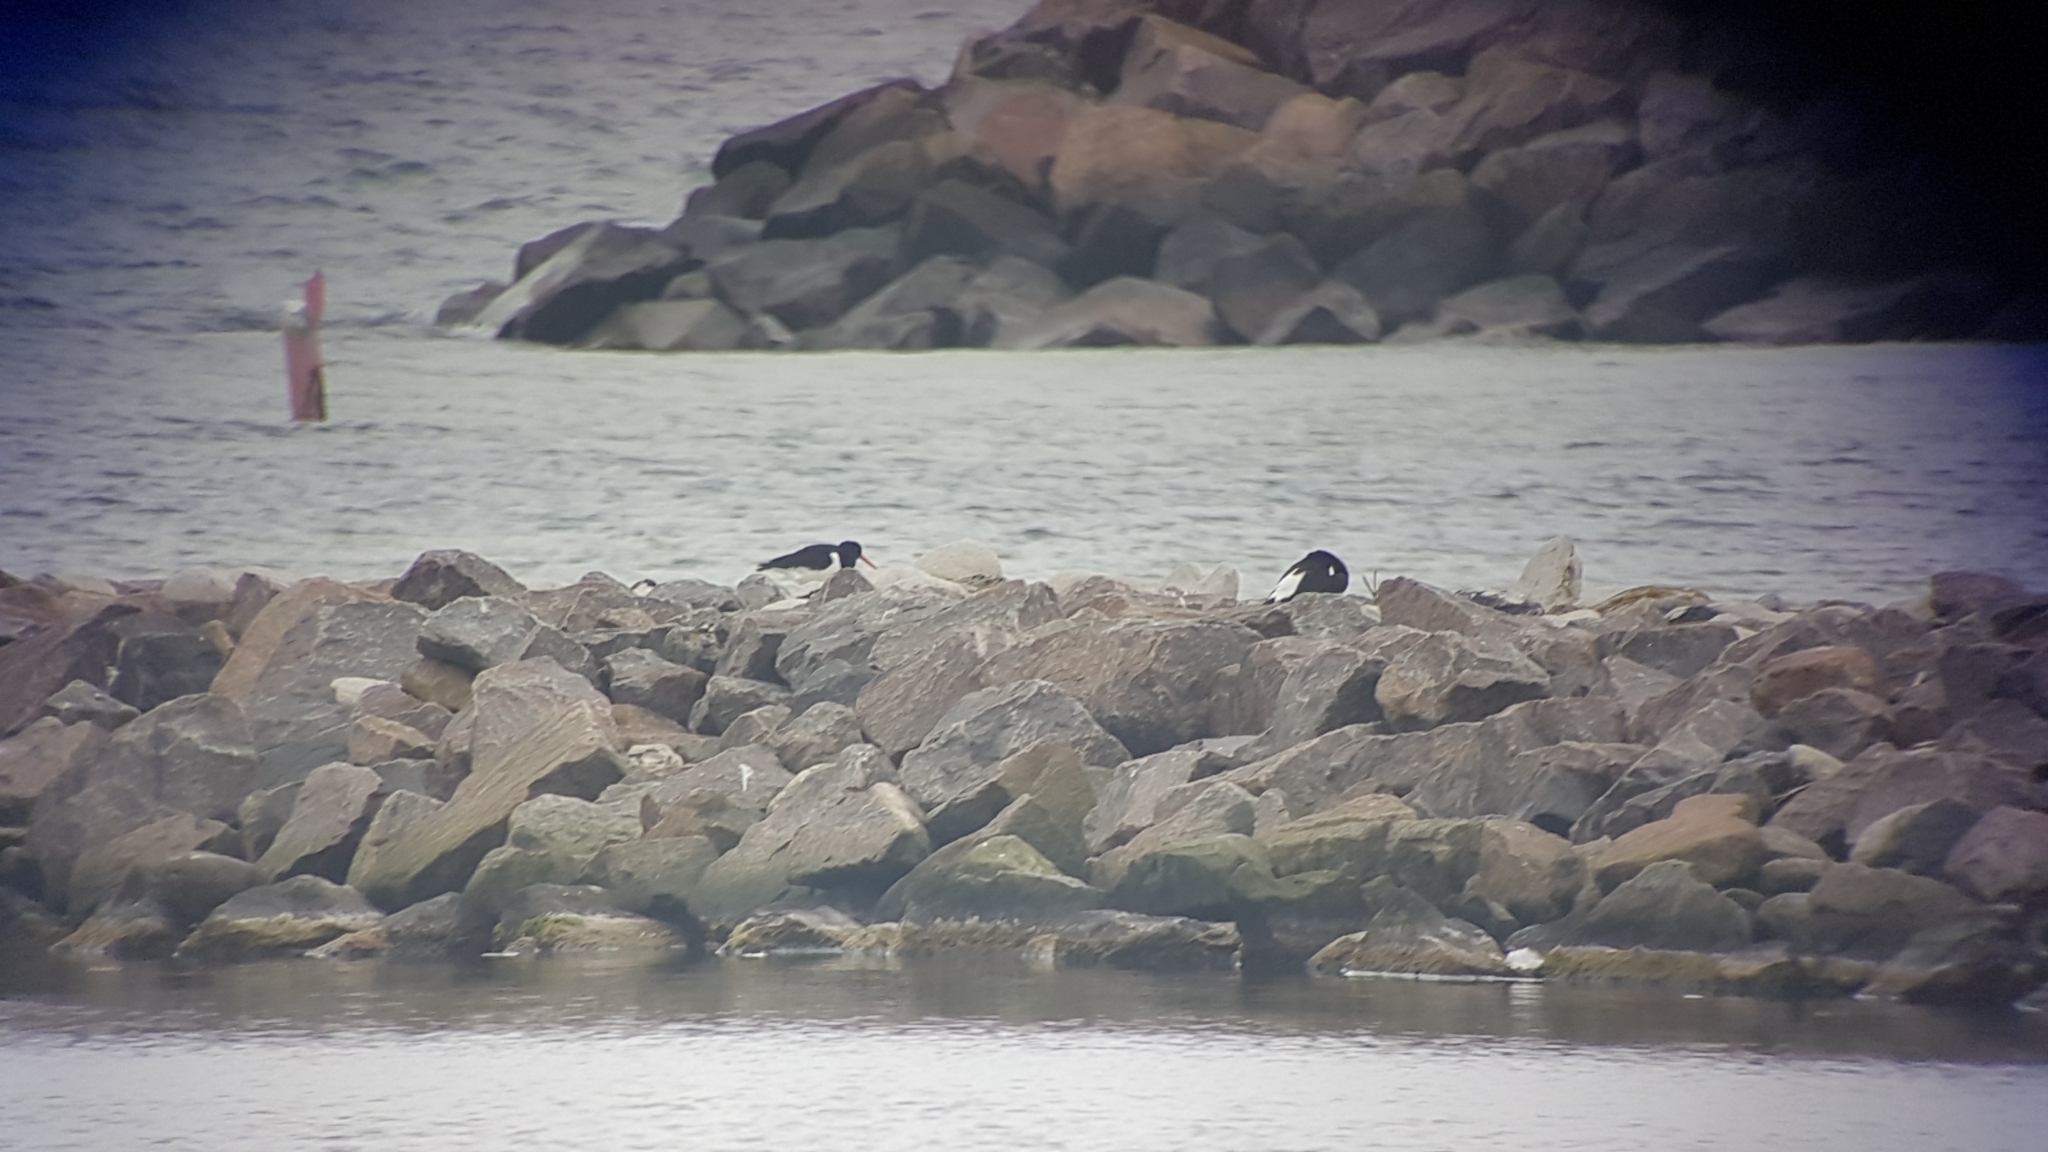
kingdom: Animalia
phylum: Chordata
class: Aves
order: Charadriiformes
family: Haematopodidae
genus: Haematopus
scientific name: Haematopus ostralegus
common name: Eurasian oystercatcher
